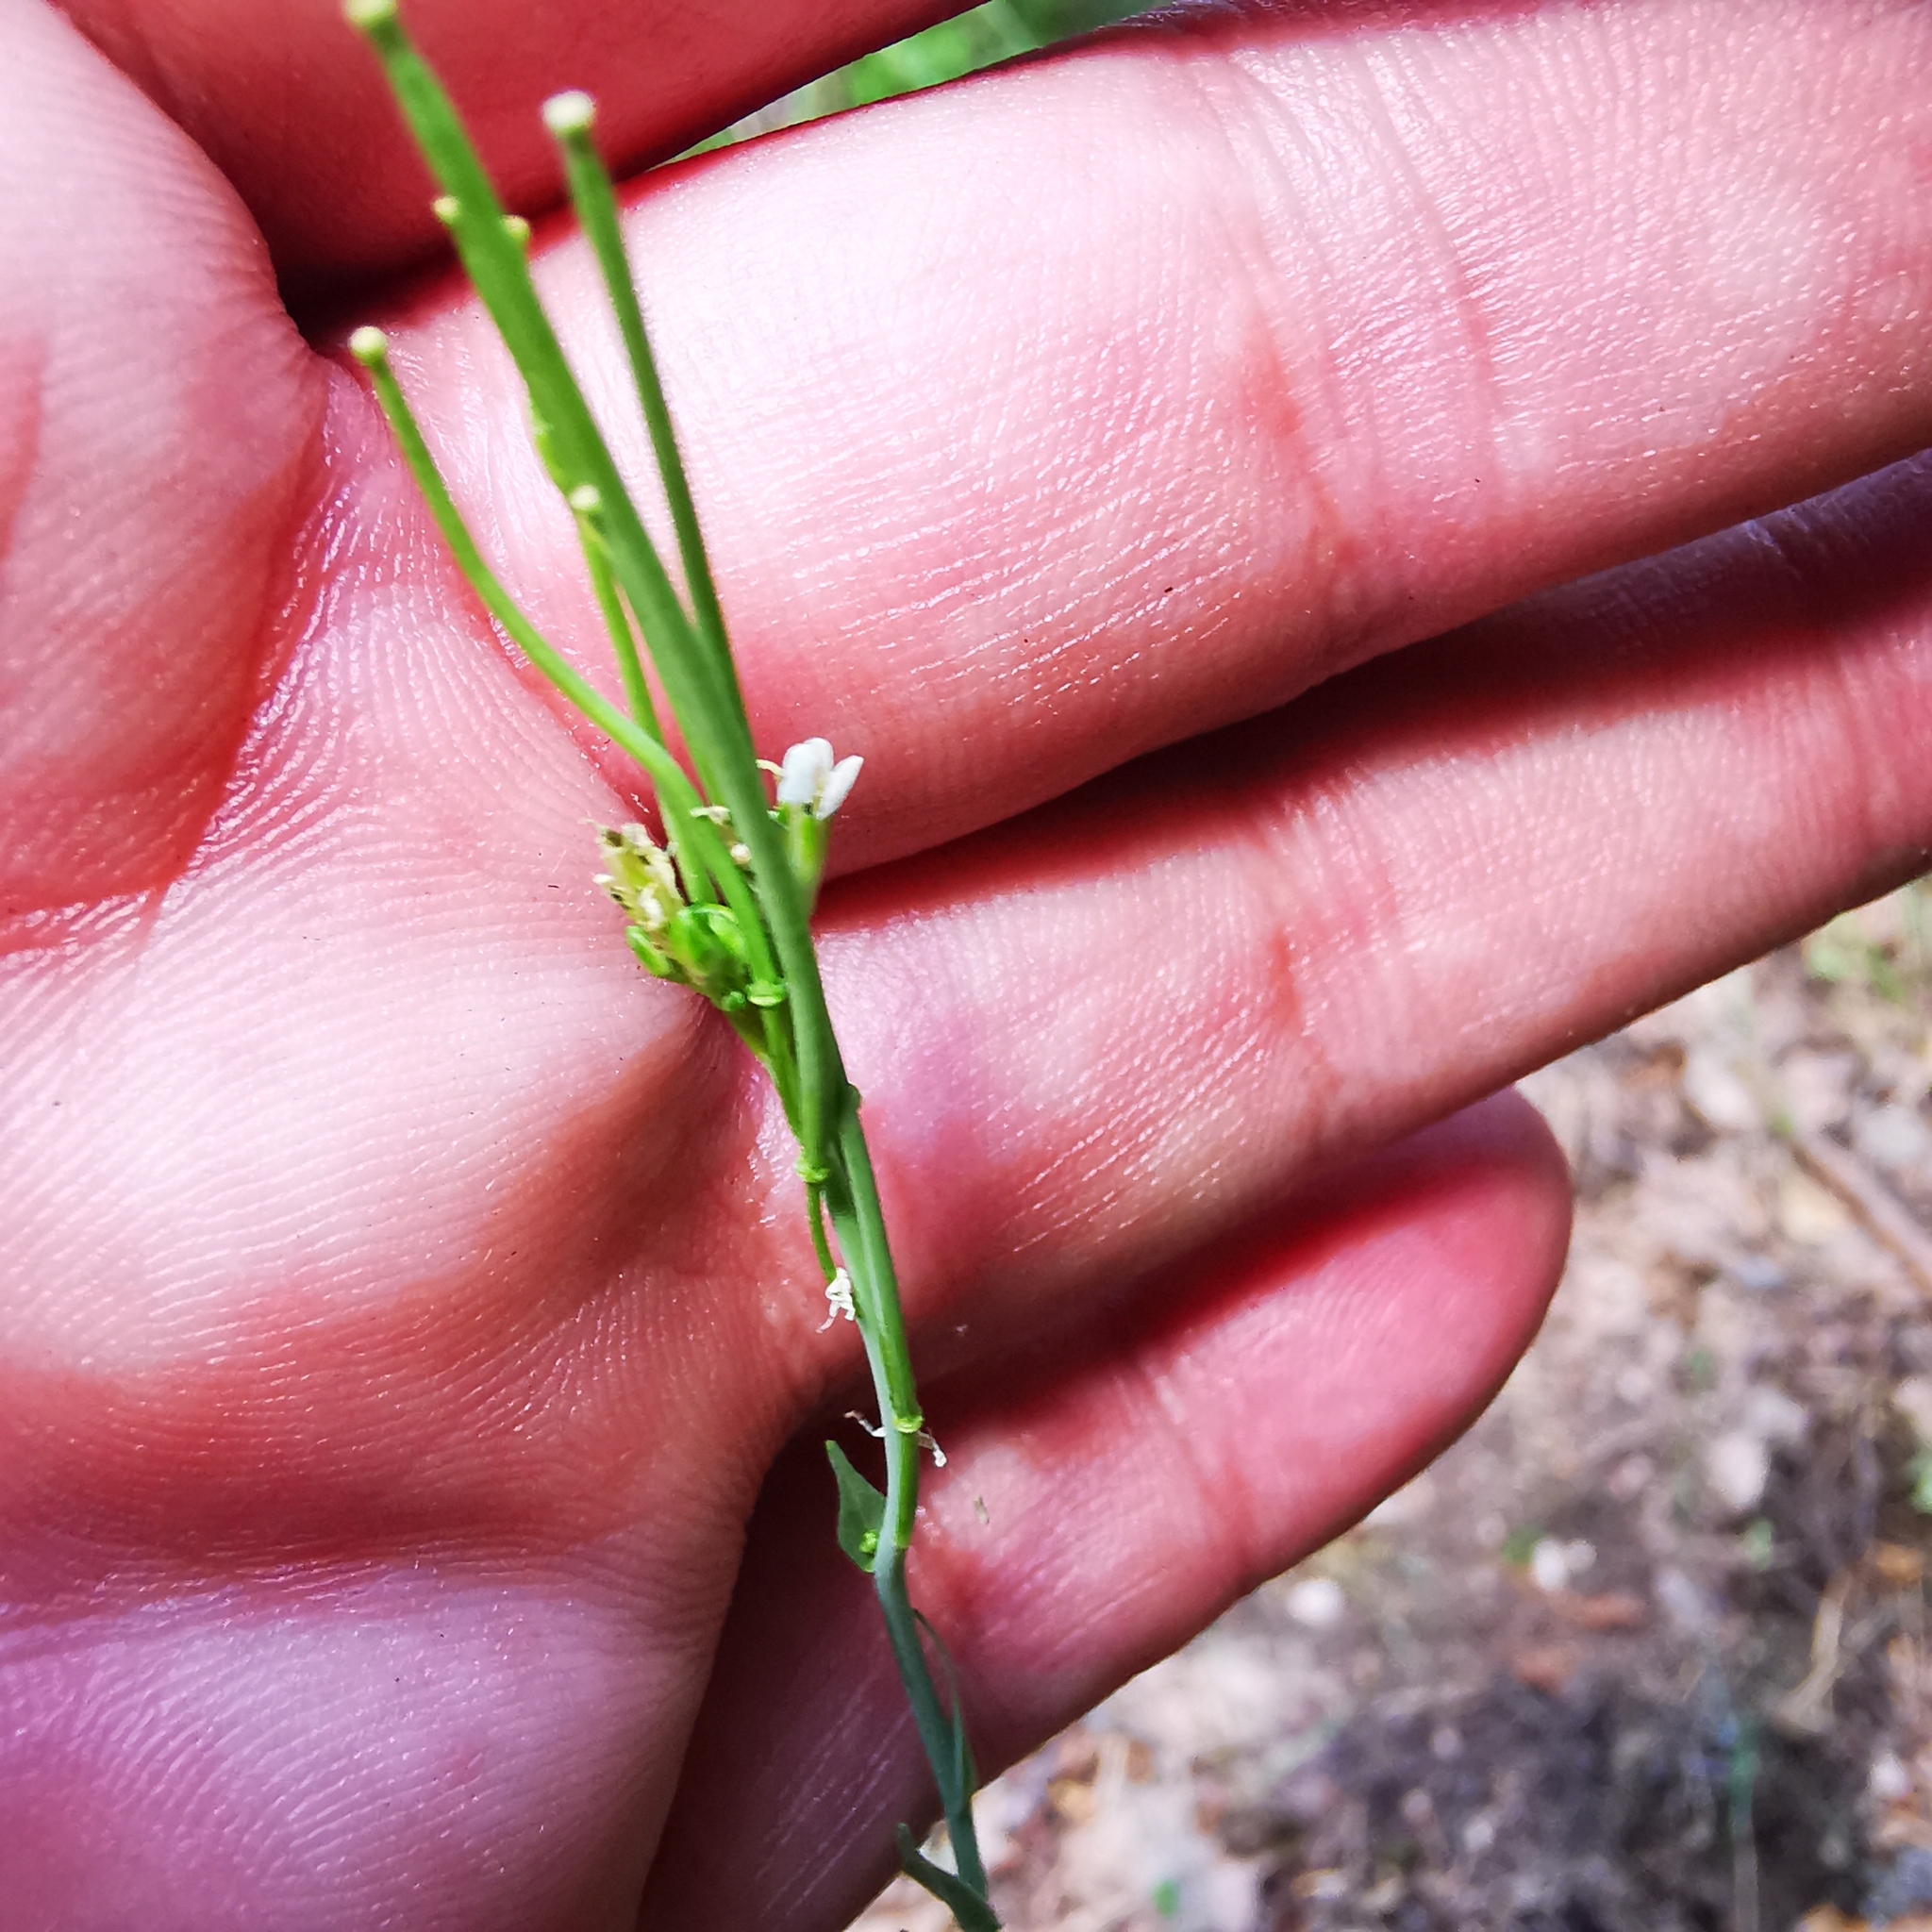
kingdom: Plantae
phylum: Tracheophyta
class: Magnoliopsida
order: Brassicales
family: Brassicaceae
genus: Turritis
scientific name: Turritis glabra
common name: Tower rockcress
